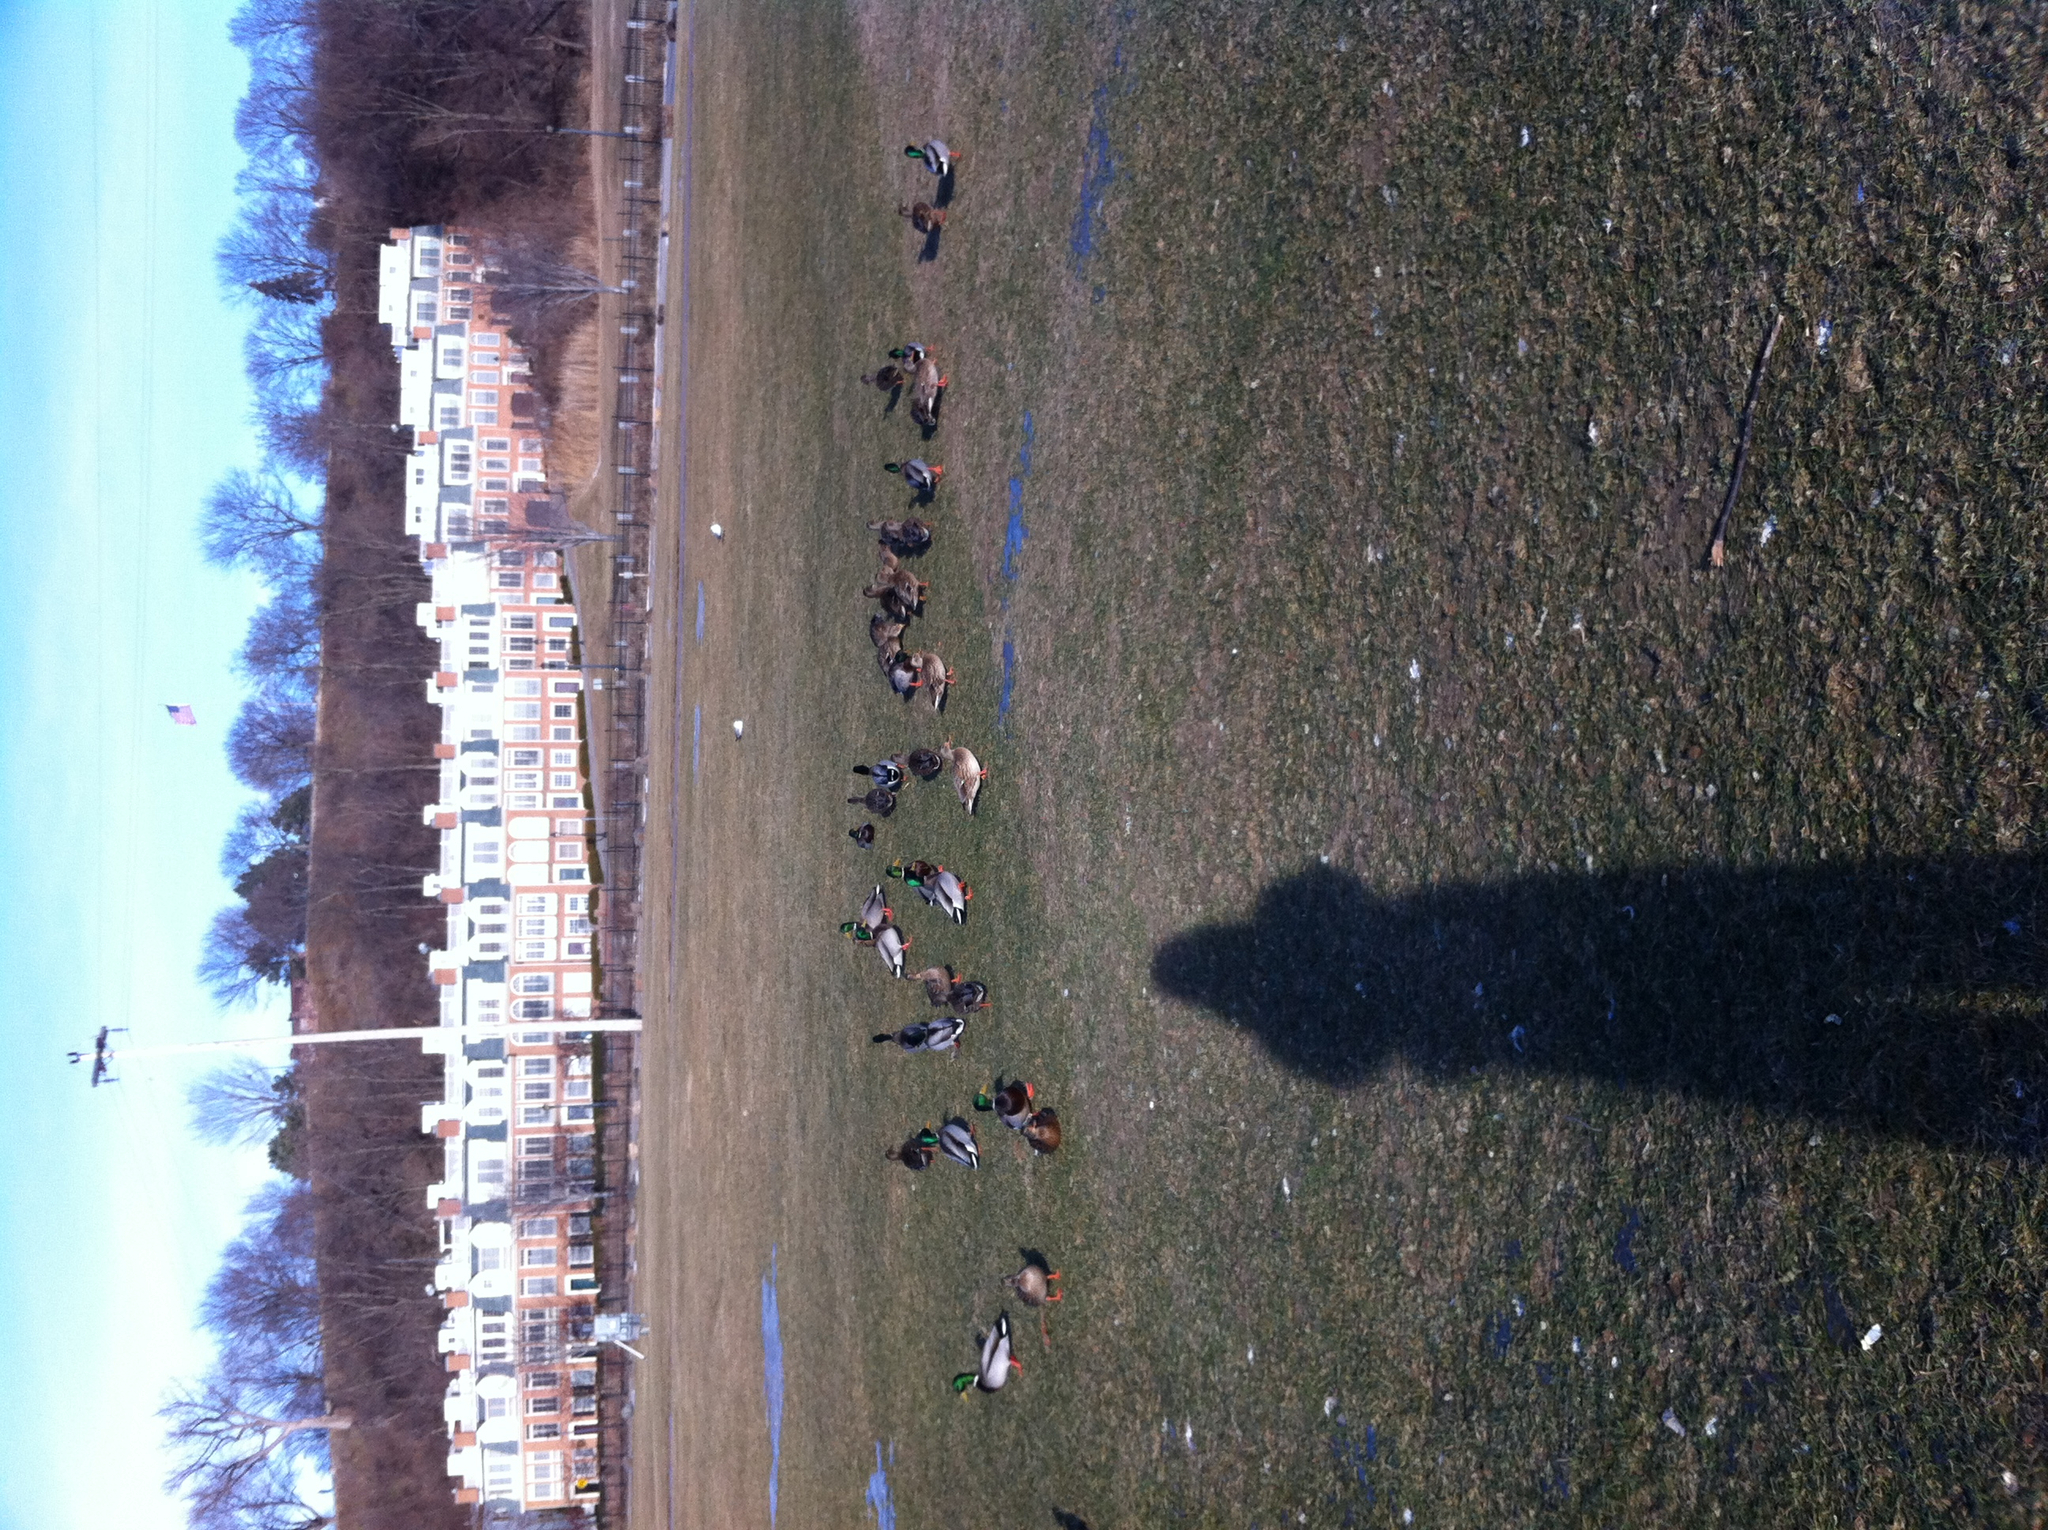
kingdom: Animalia
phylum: Chordata
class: Aves
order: Anseriformes
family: Anatidae
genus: Anas
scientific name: Anas platyrhynchos
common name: Mallard
